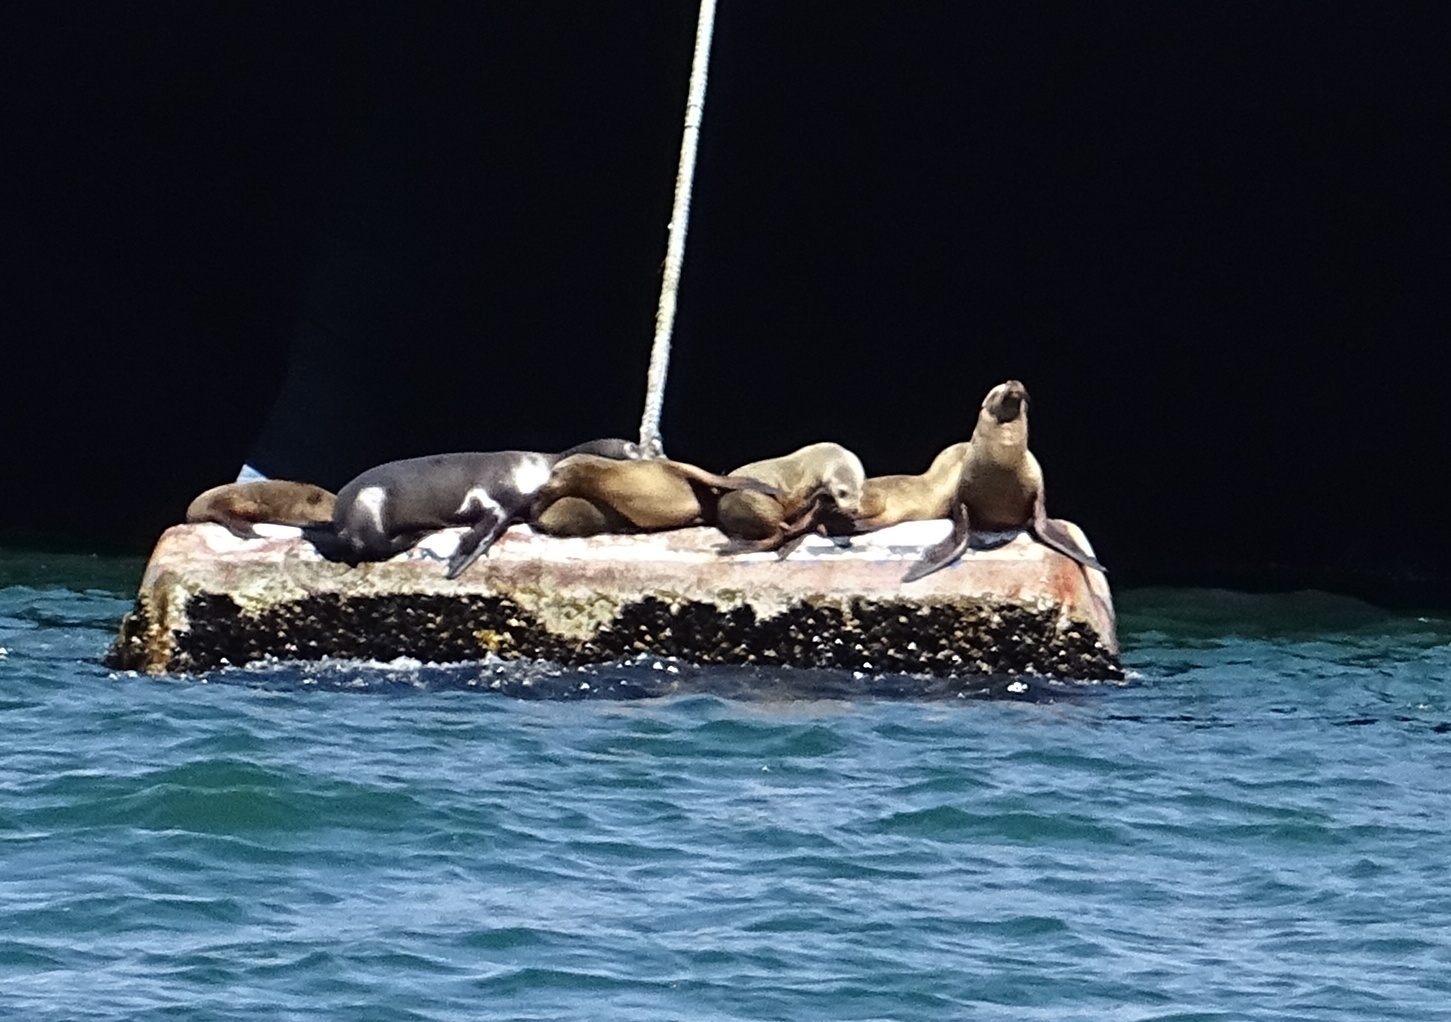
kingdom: Animalia
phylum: Chordata
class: Mammalia
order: Carnivora
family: Otariidae
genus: Zalophus
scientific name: Zalophus californianus
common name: California sea lion
